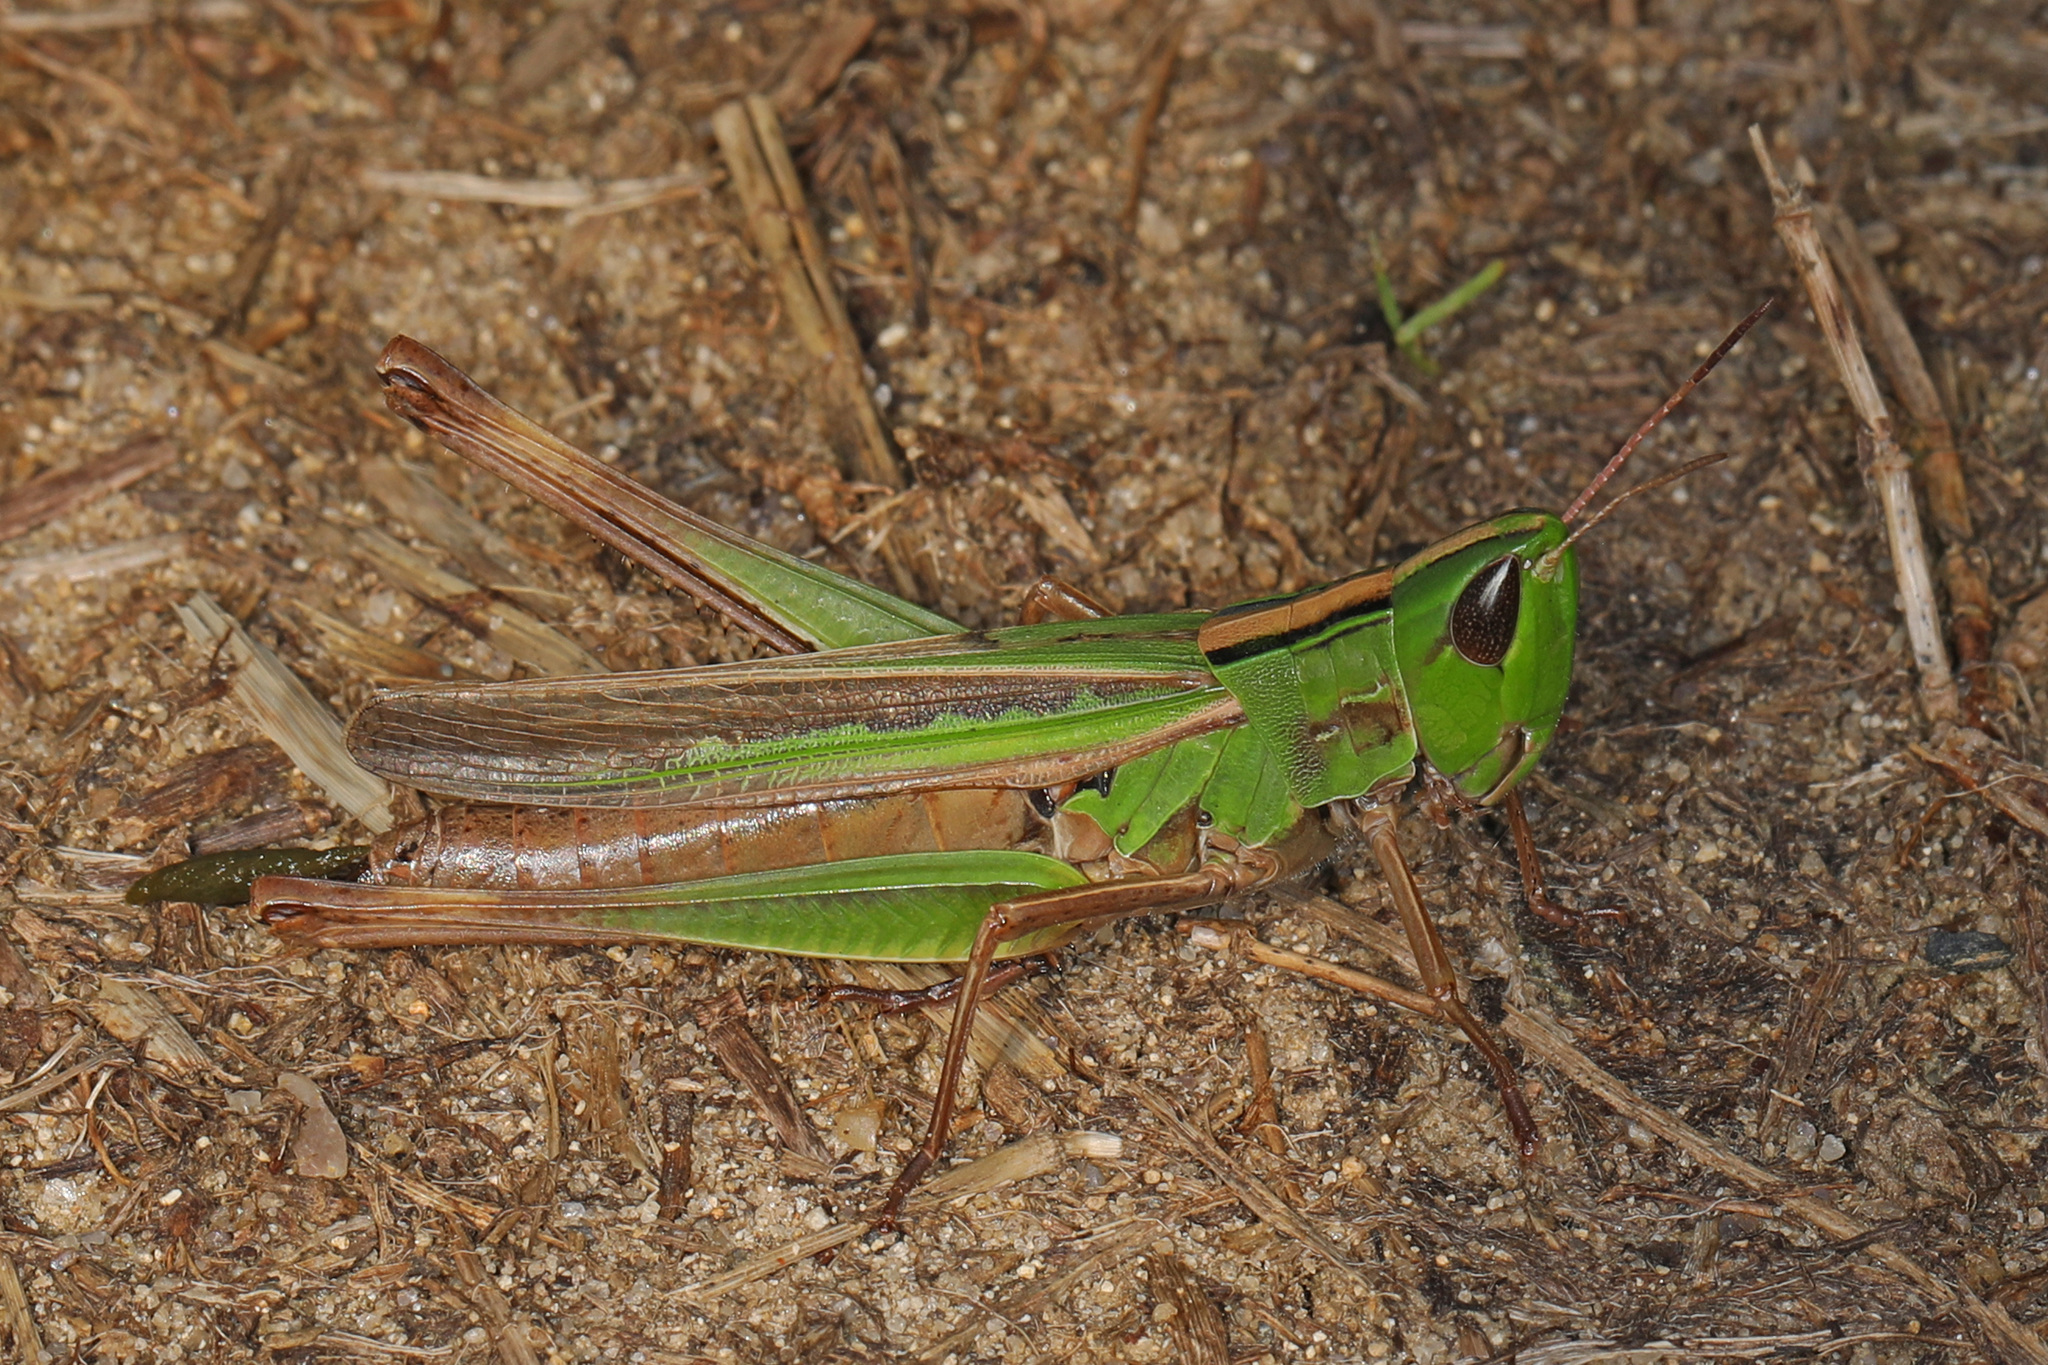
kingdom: Animalia
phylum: Arthropoda
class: Insecta
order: Orthoptera
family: Acrididae
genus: Syrbula
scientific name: Syrbula admirabilis
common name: Handsome grasshopper
